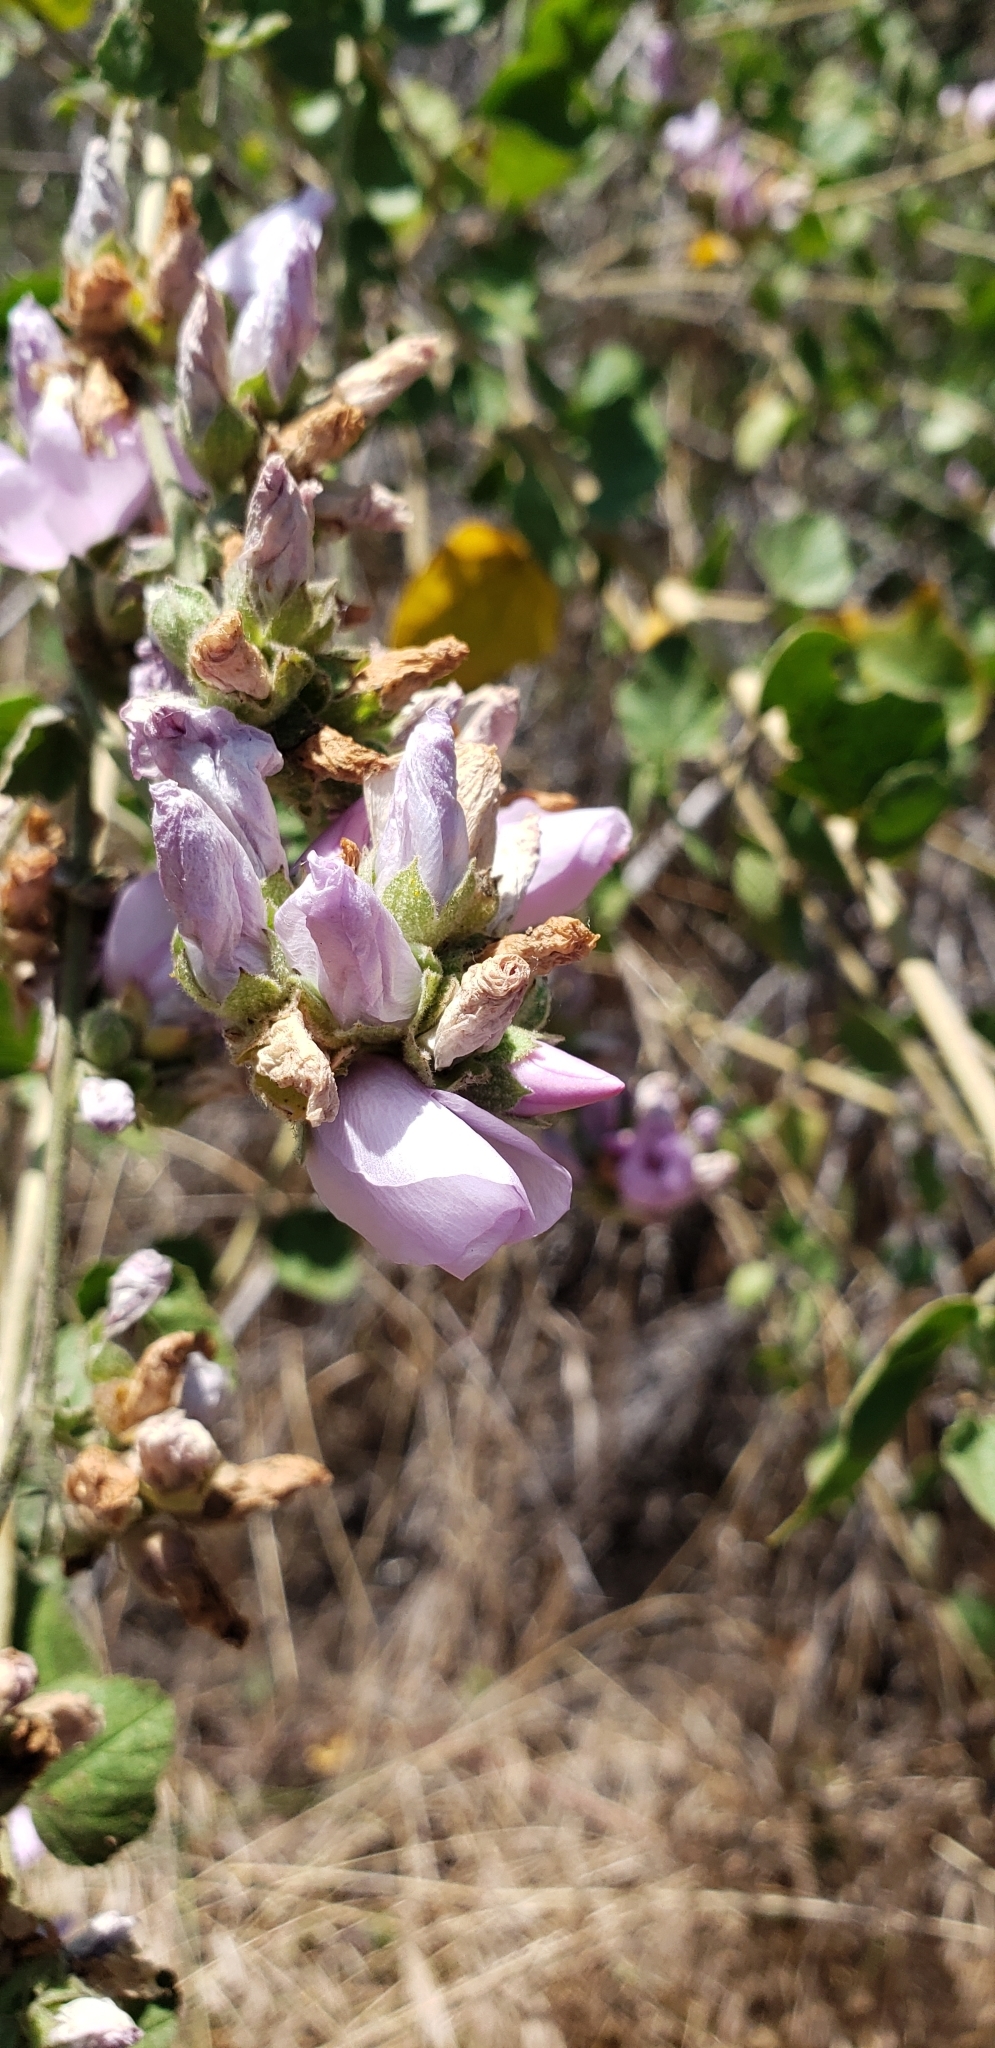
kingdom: Plantae
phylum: Tracheophyta
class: Magnoliopsida
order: Malvales
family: Malvaceae
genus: Malacothamnus
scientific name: Malacothamnus fasciculatus
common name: Sant cruz island bush-mallow
